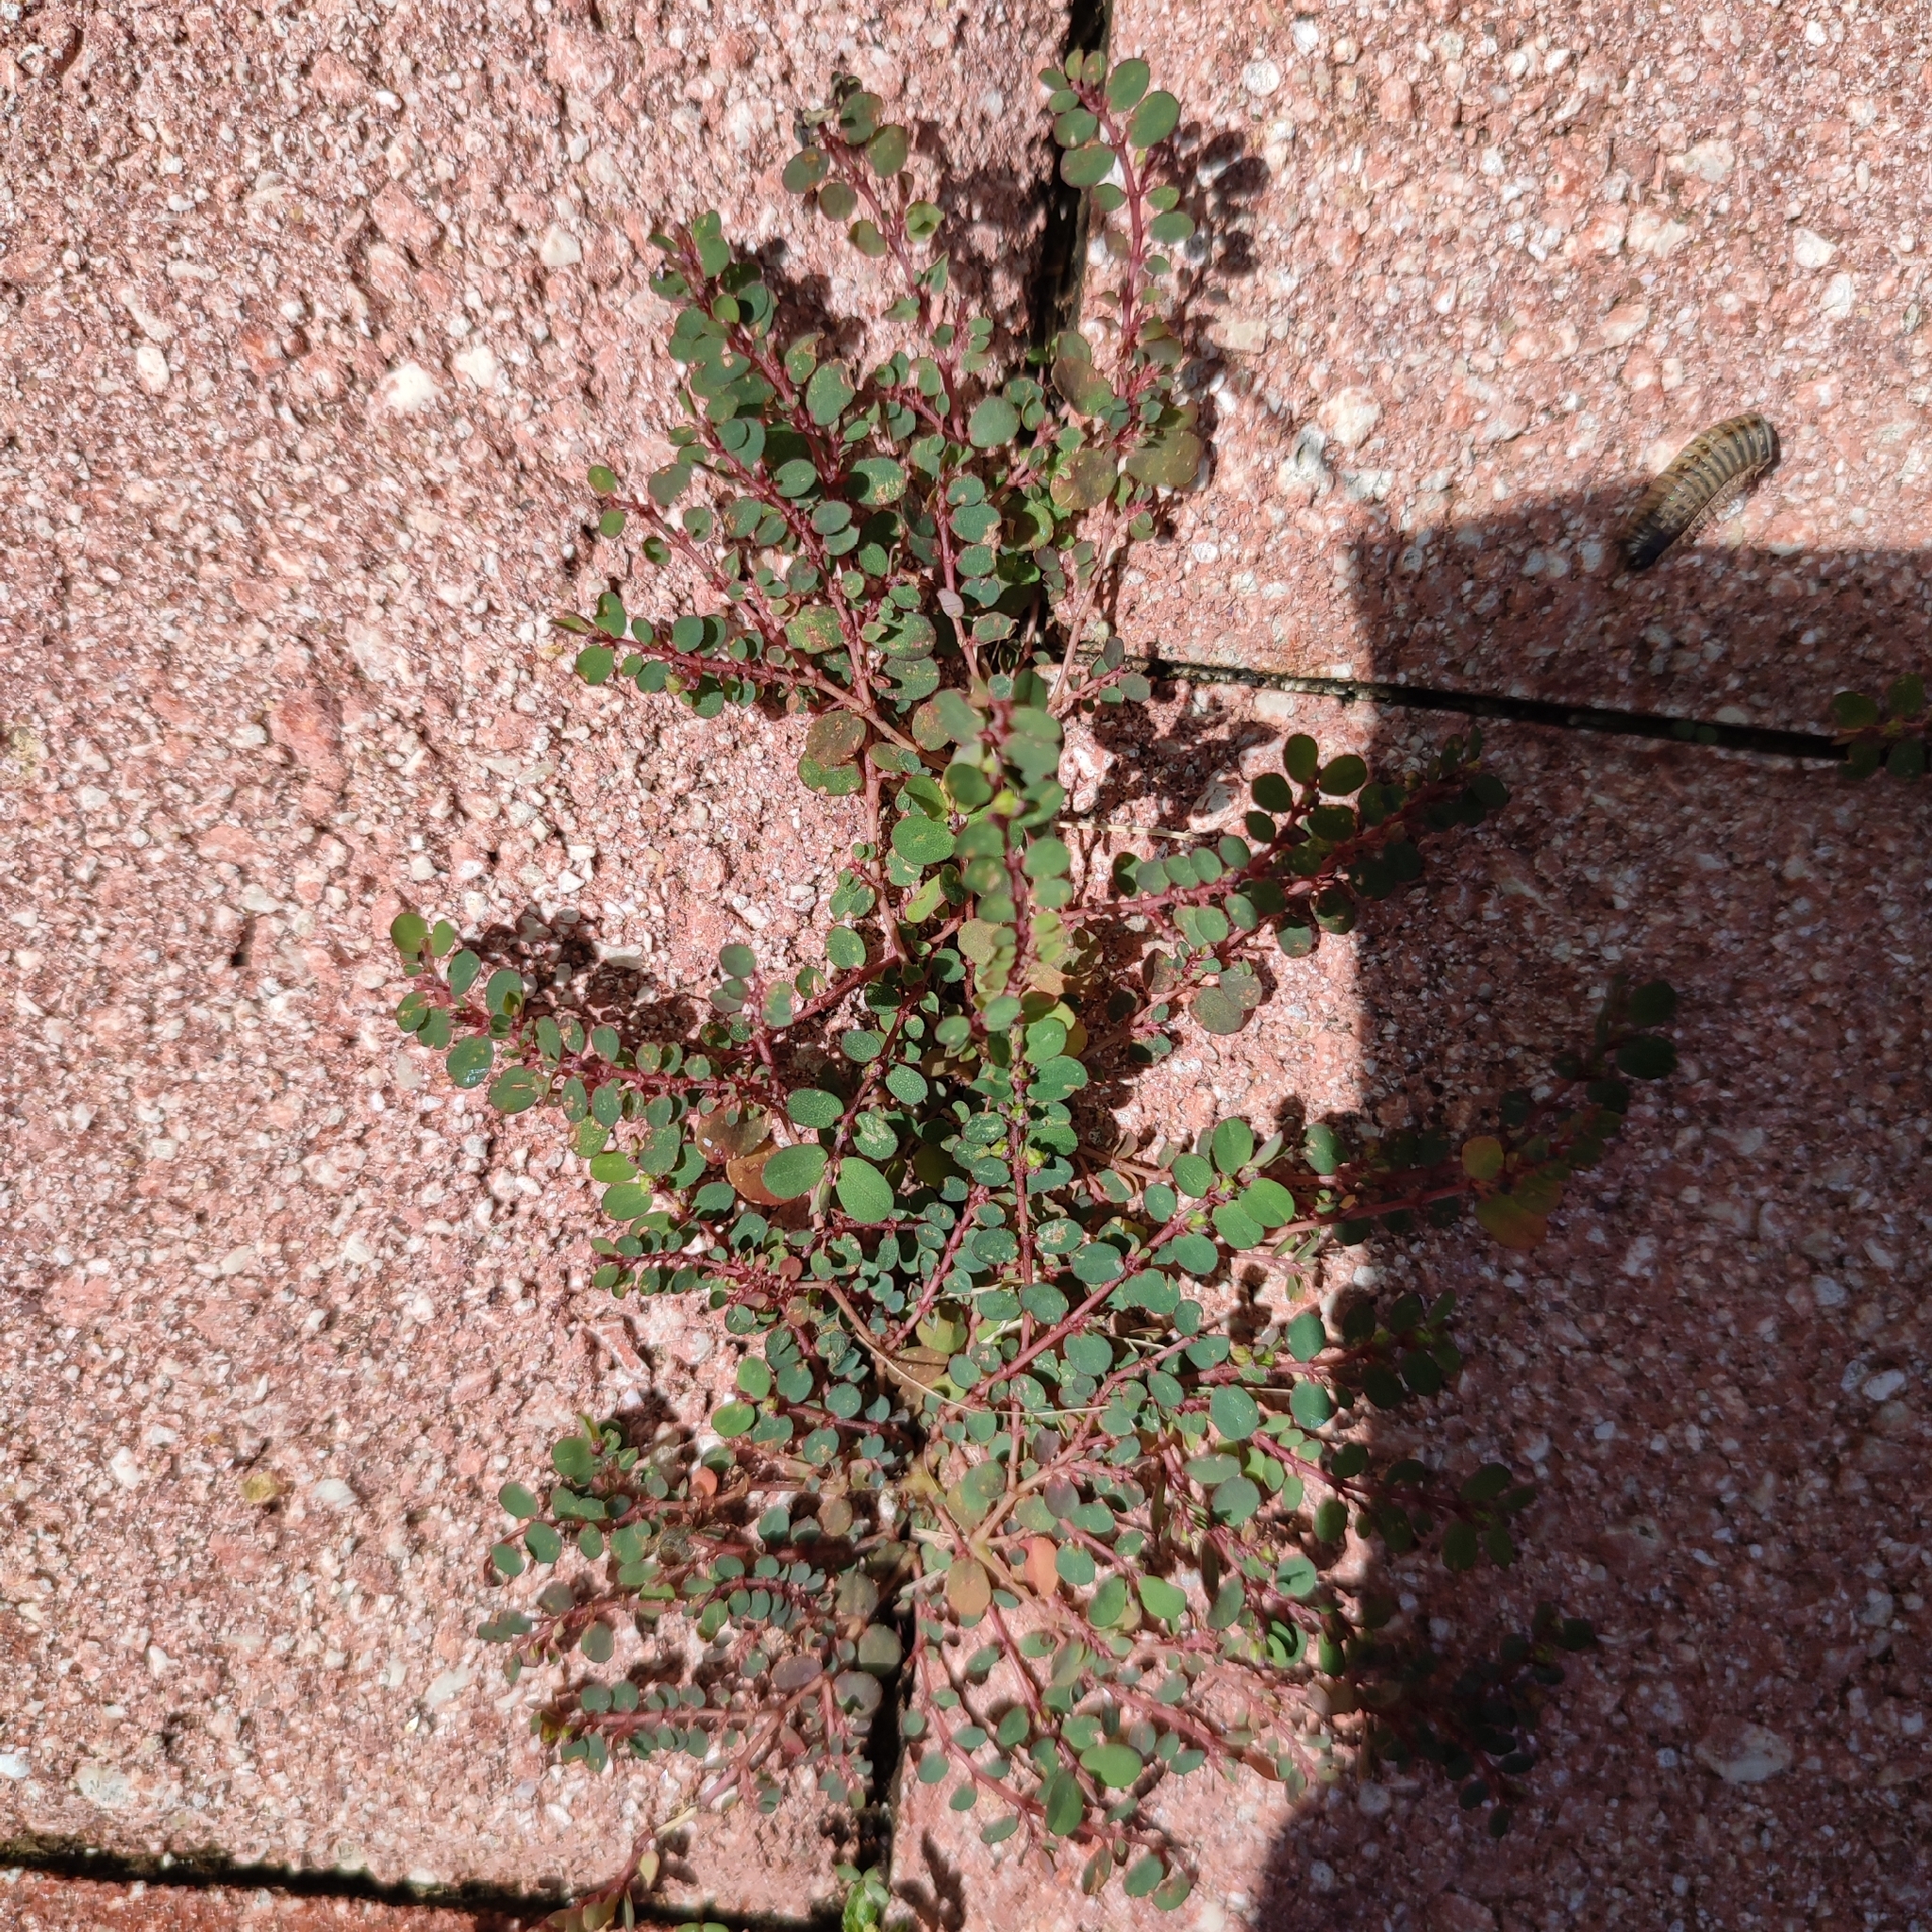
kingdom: Plantae
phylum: Tracheophyta
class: Magnoliopsida
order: Malpighiales
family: Euphorbiaceae
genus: Euphorbia
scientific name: Euphorbia prostrata
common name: Prostrate sandmat
